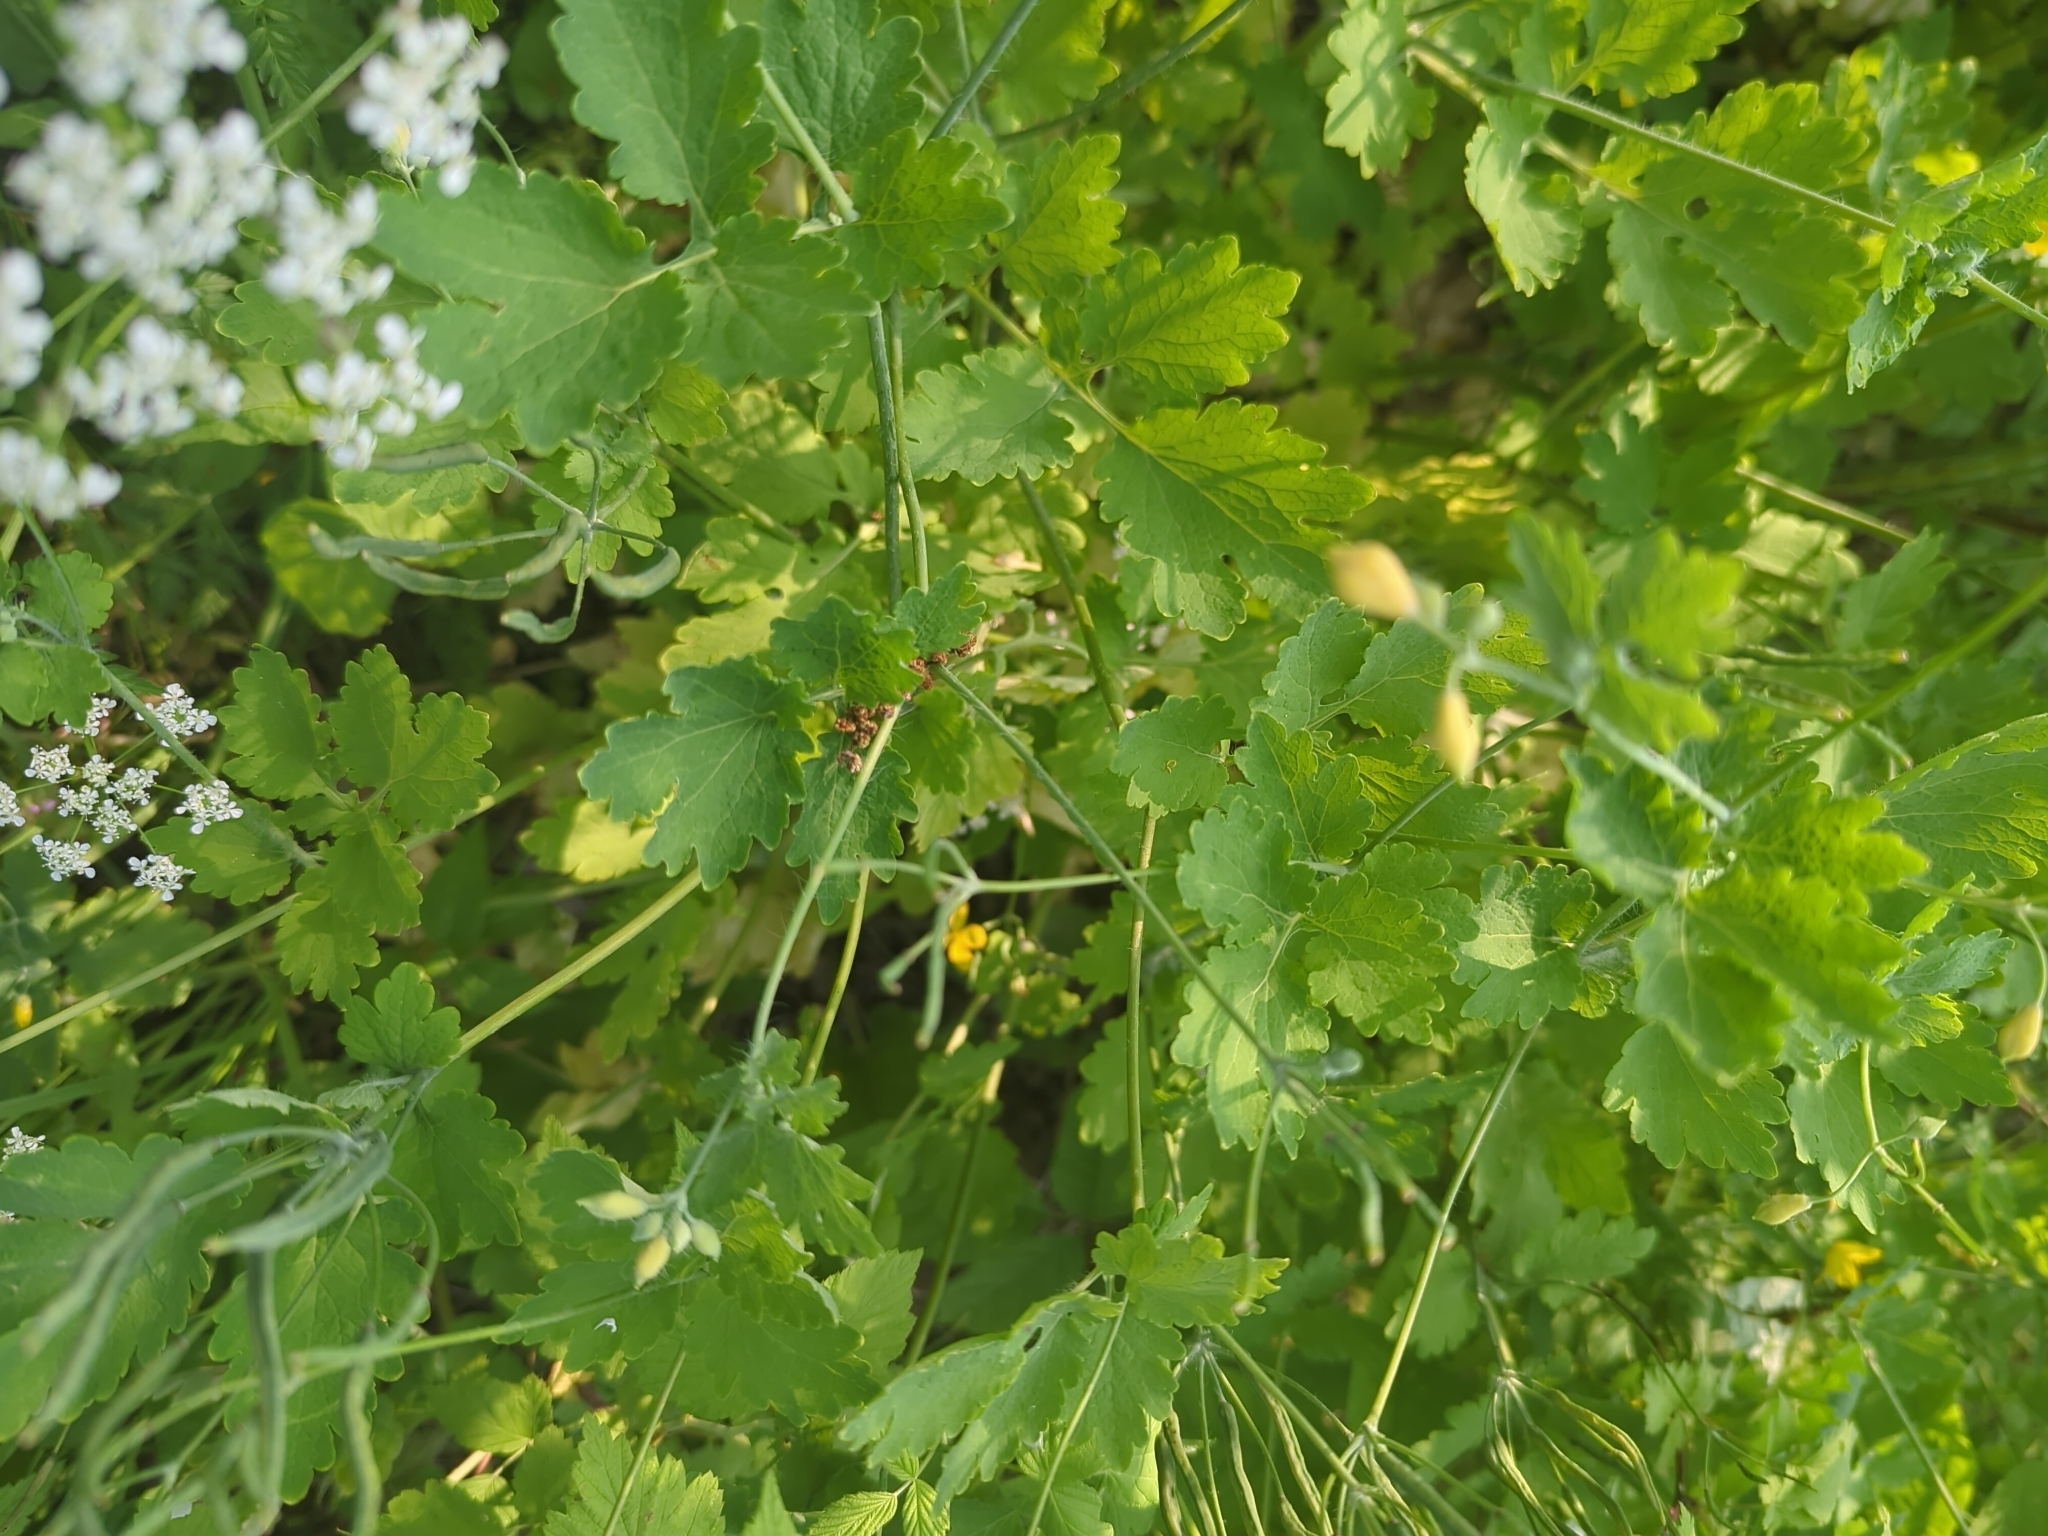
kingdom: Plantae
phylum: Tracheophyta
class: Magnoliopsida
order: Ranunculales
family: Papaveraceae
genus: Chelidonium
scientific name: Chelidonium majus
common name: Greater celandine
